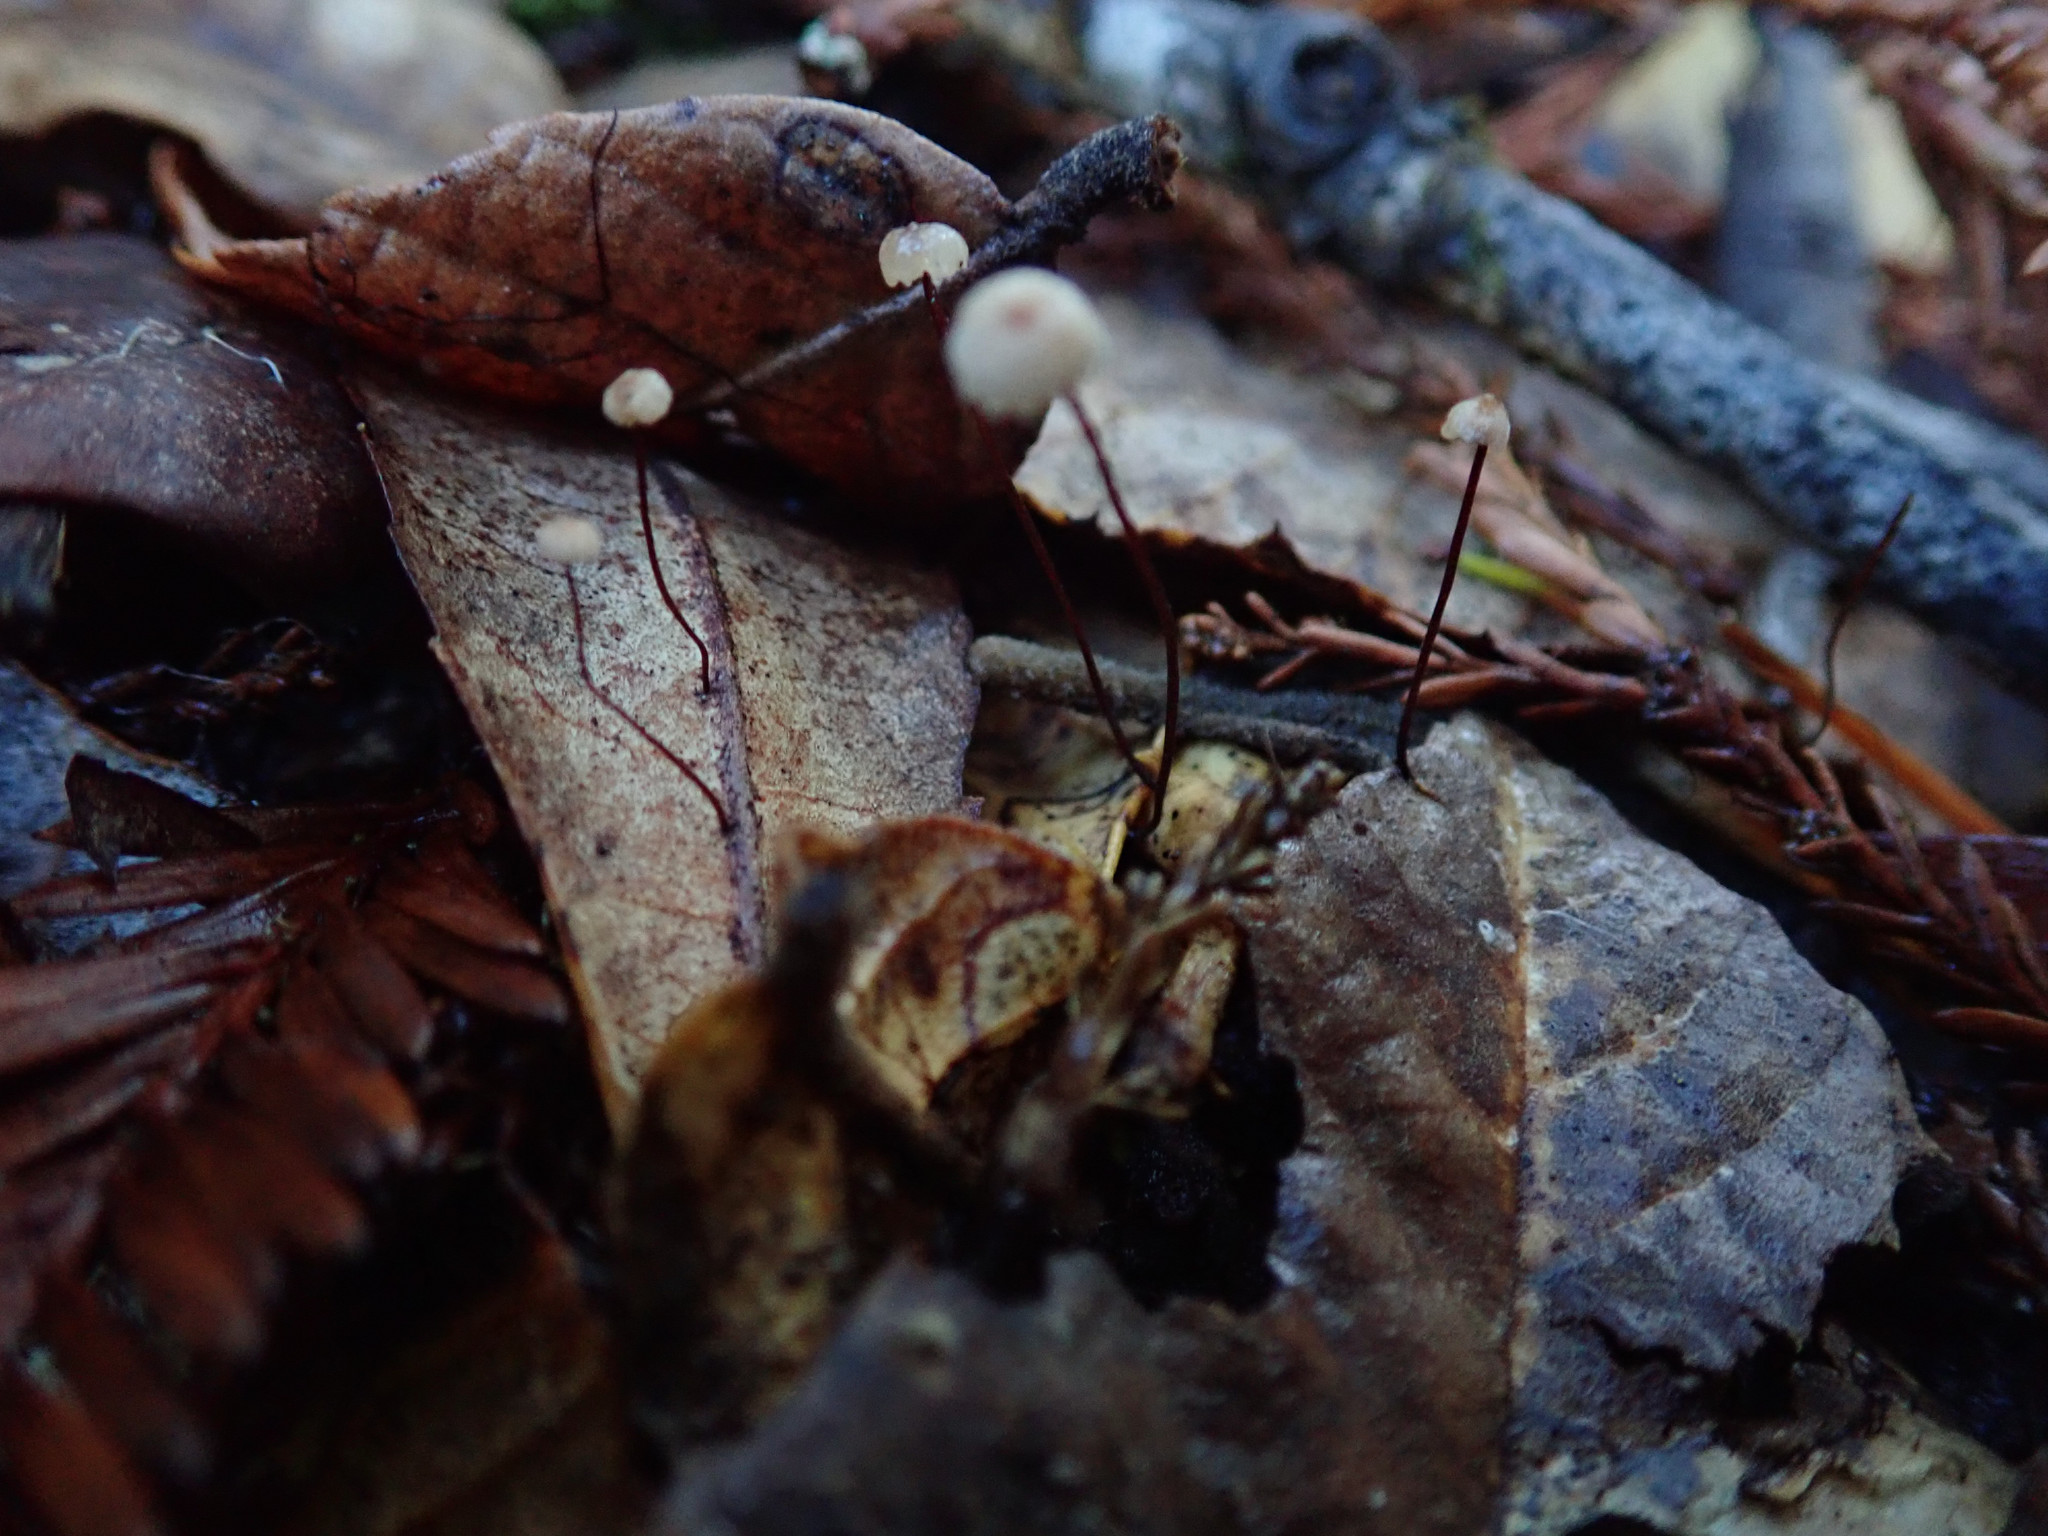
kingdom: Fungi
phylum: Basidiomycota
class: Agaricomycetes
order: Agaricales
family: Omphalotaceae
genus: Collybiopsis
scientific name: Collybiopsis quercophila
